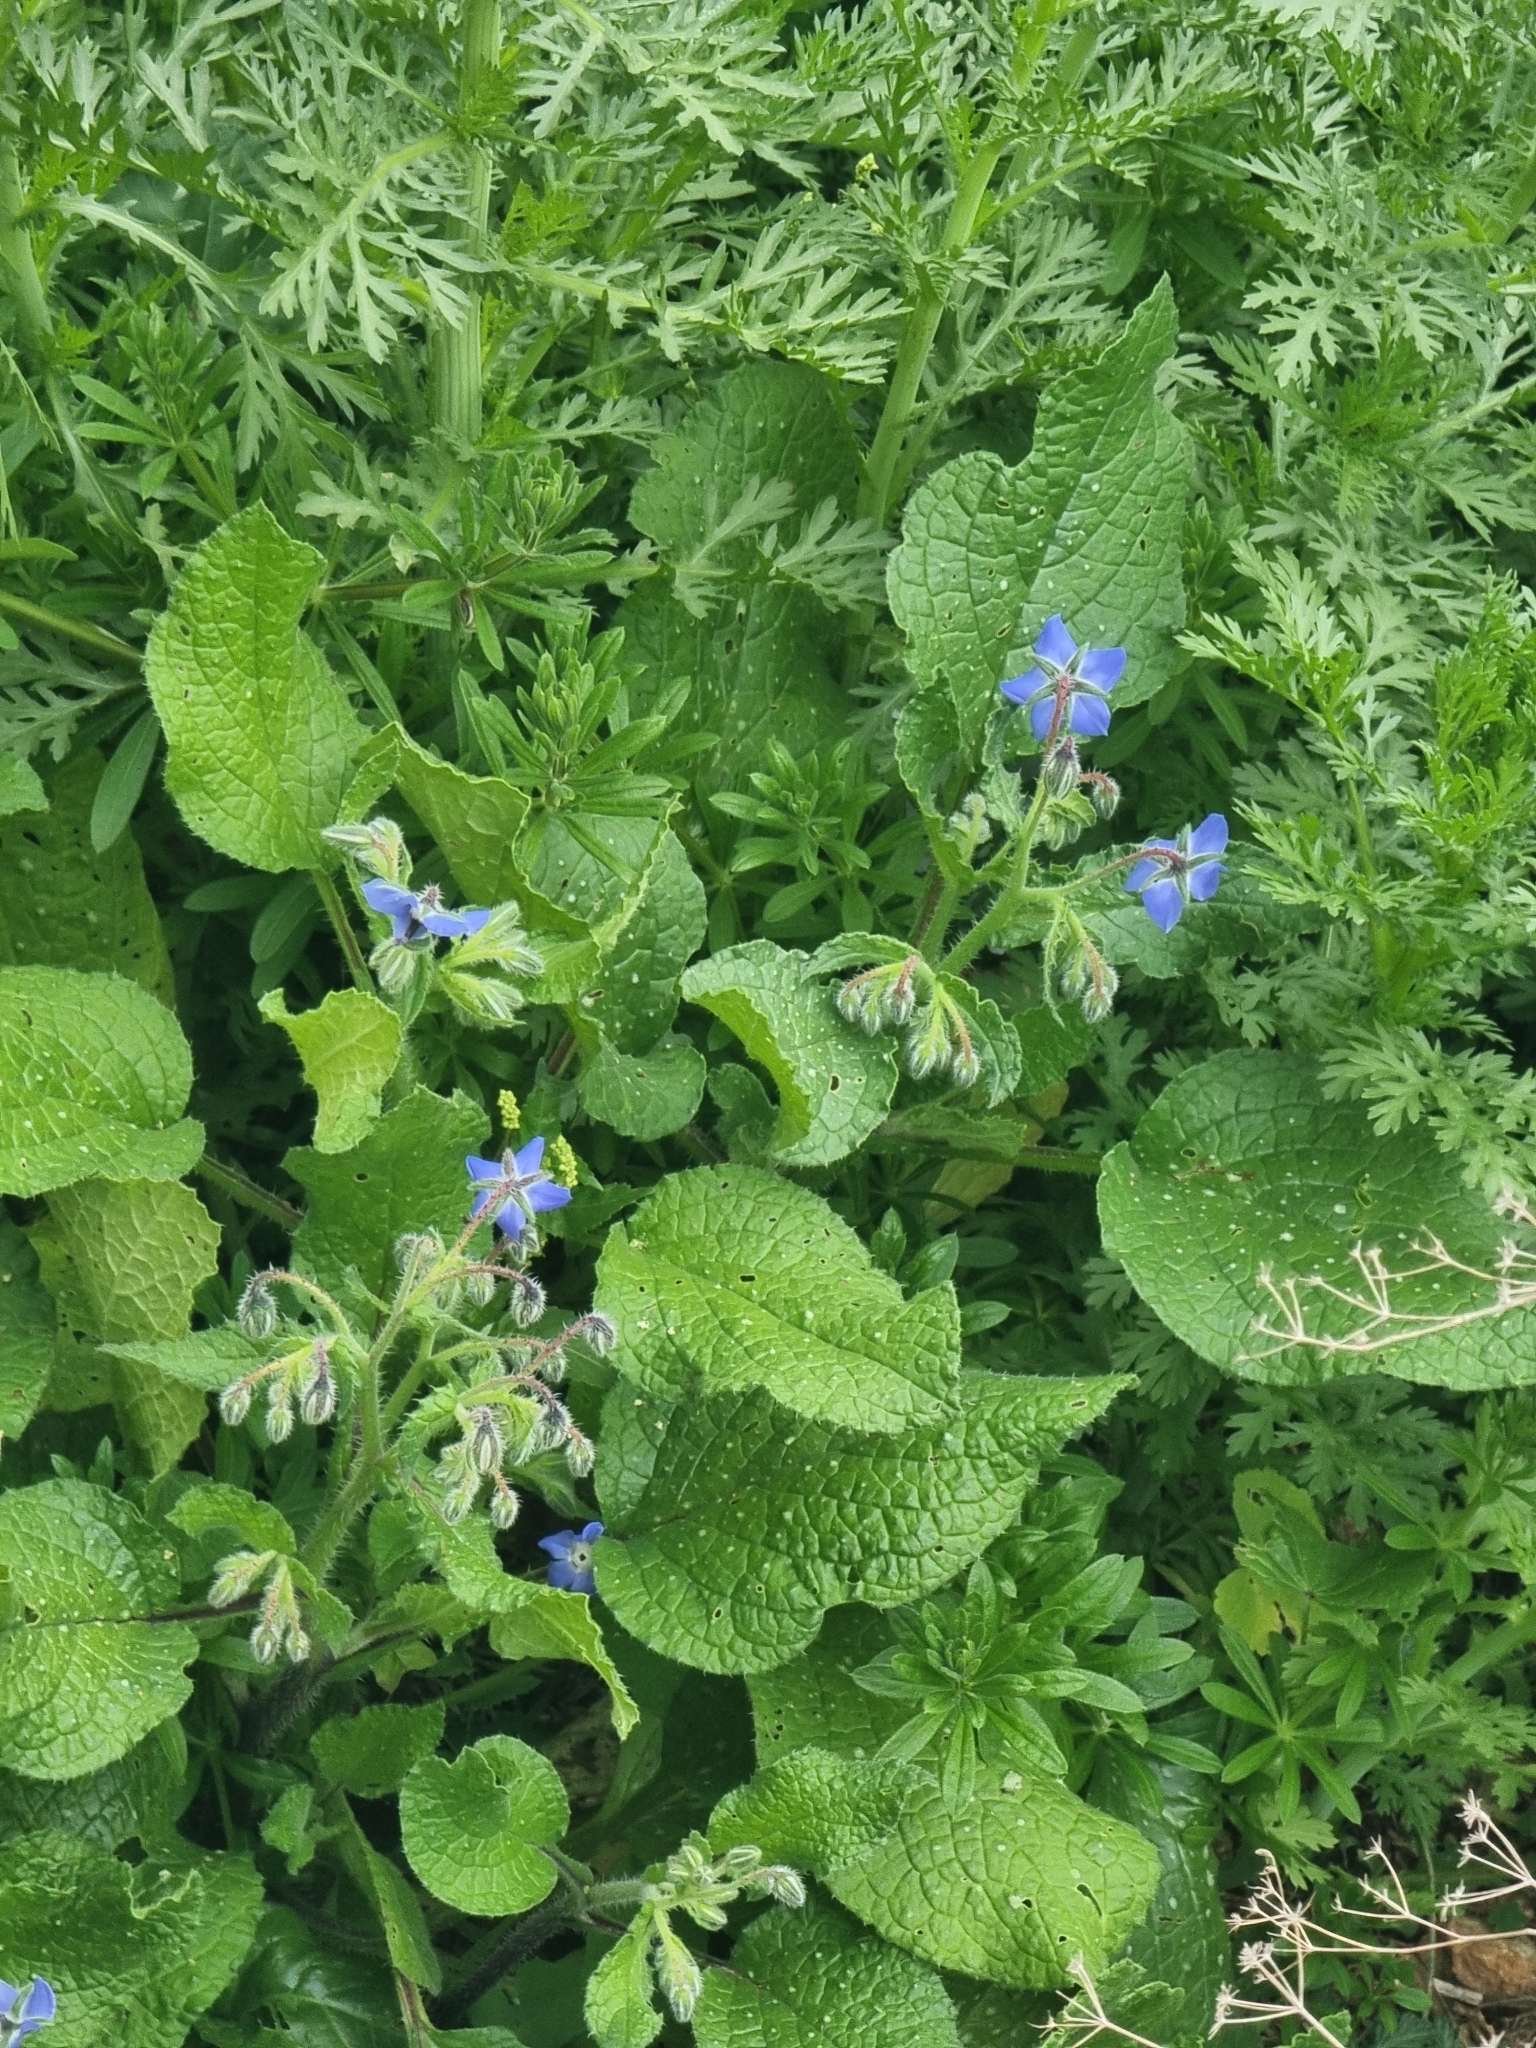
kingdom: Plantae
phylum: Tracheophyta
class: Magnoliopsida
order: Boraginales
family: Boraginaceae
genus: Borago
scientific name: Borago officinalis
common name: Borage
